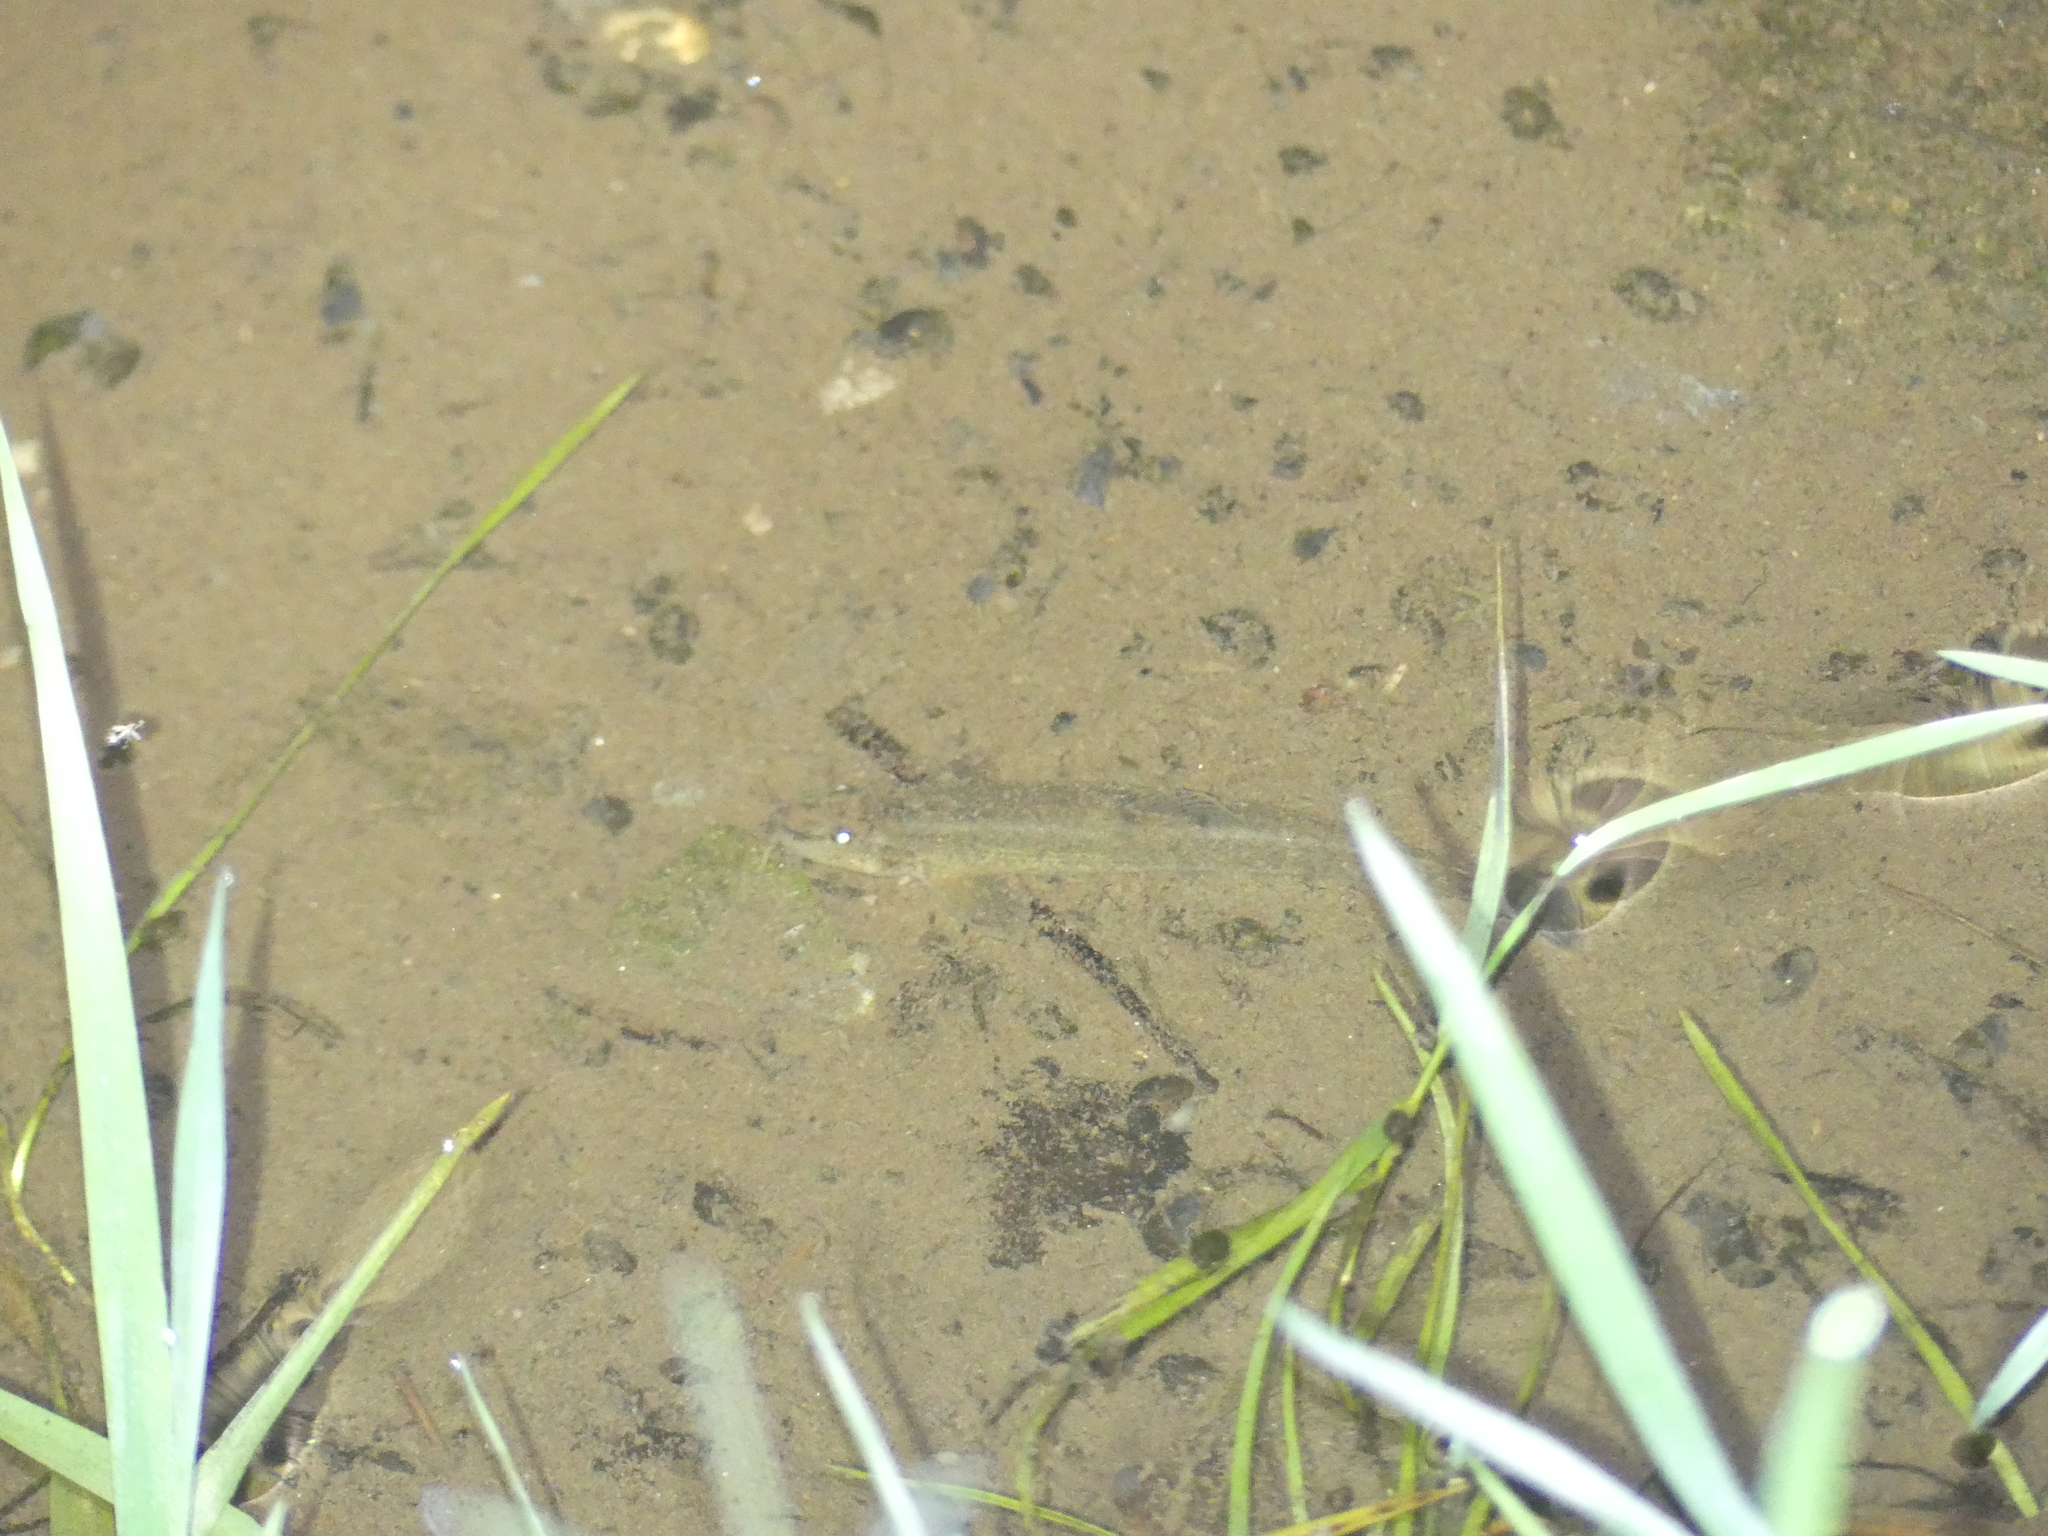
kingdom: Animalia
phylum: Chordata
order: Cypriniformes
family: Nemacheilidae
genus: Barbatula
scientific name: Barbatula barbatula
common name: Stone loach
